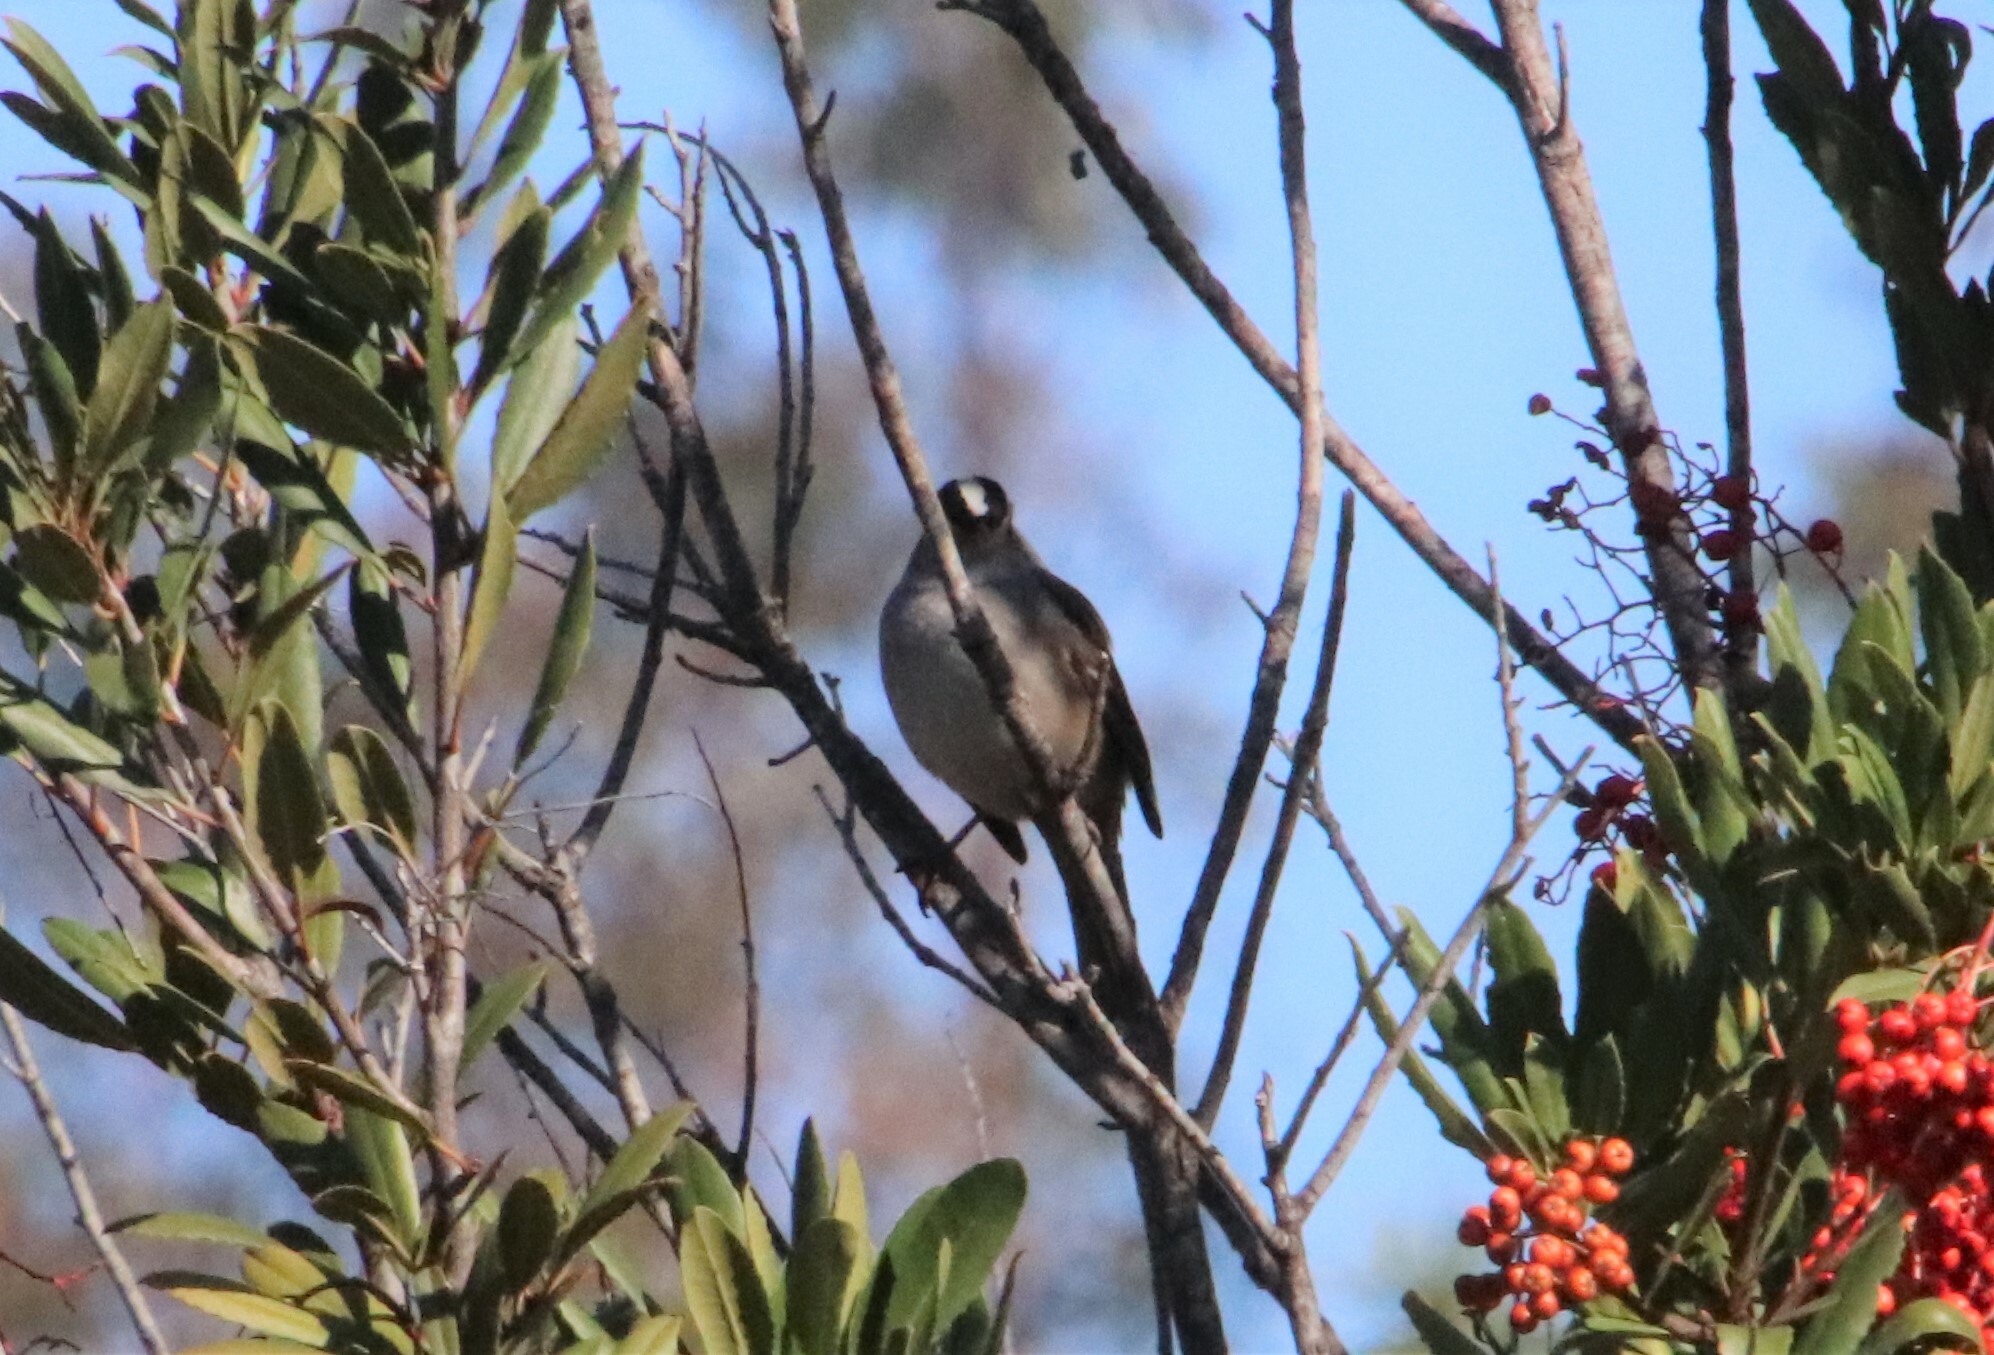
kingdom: Animalia
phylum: Chordata
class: Aves
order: Passeriformes
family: Passerellidae
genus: Zonotrichia
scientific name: Zonotrichia leucophrys
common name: White-crowned sparrow
